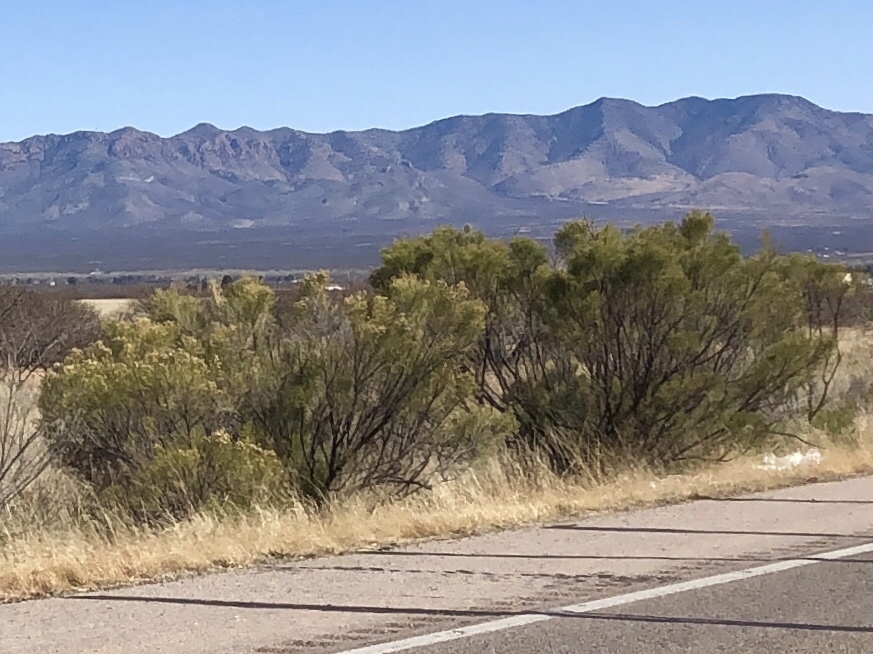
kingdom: Plantae
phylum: Tracheophyta
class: Magnoliopsida
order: Asterales
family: Asteraceae
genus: Baccharis
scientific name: Baccharis sarothroides
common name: Desert-broom
